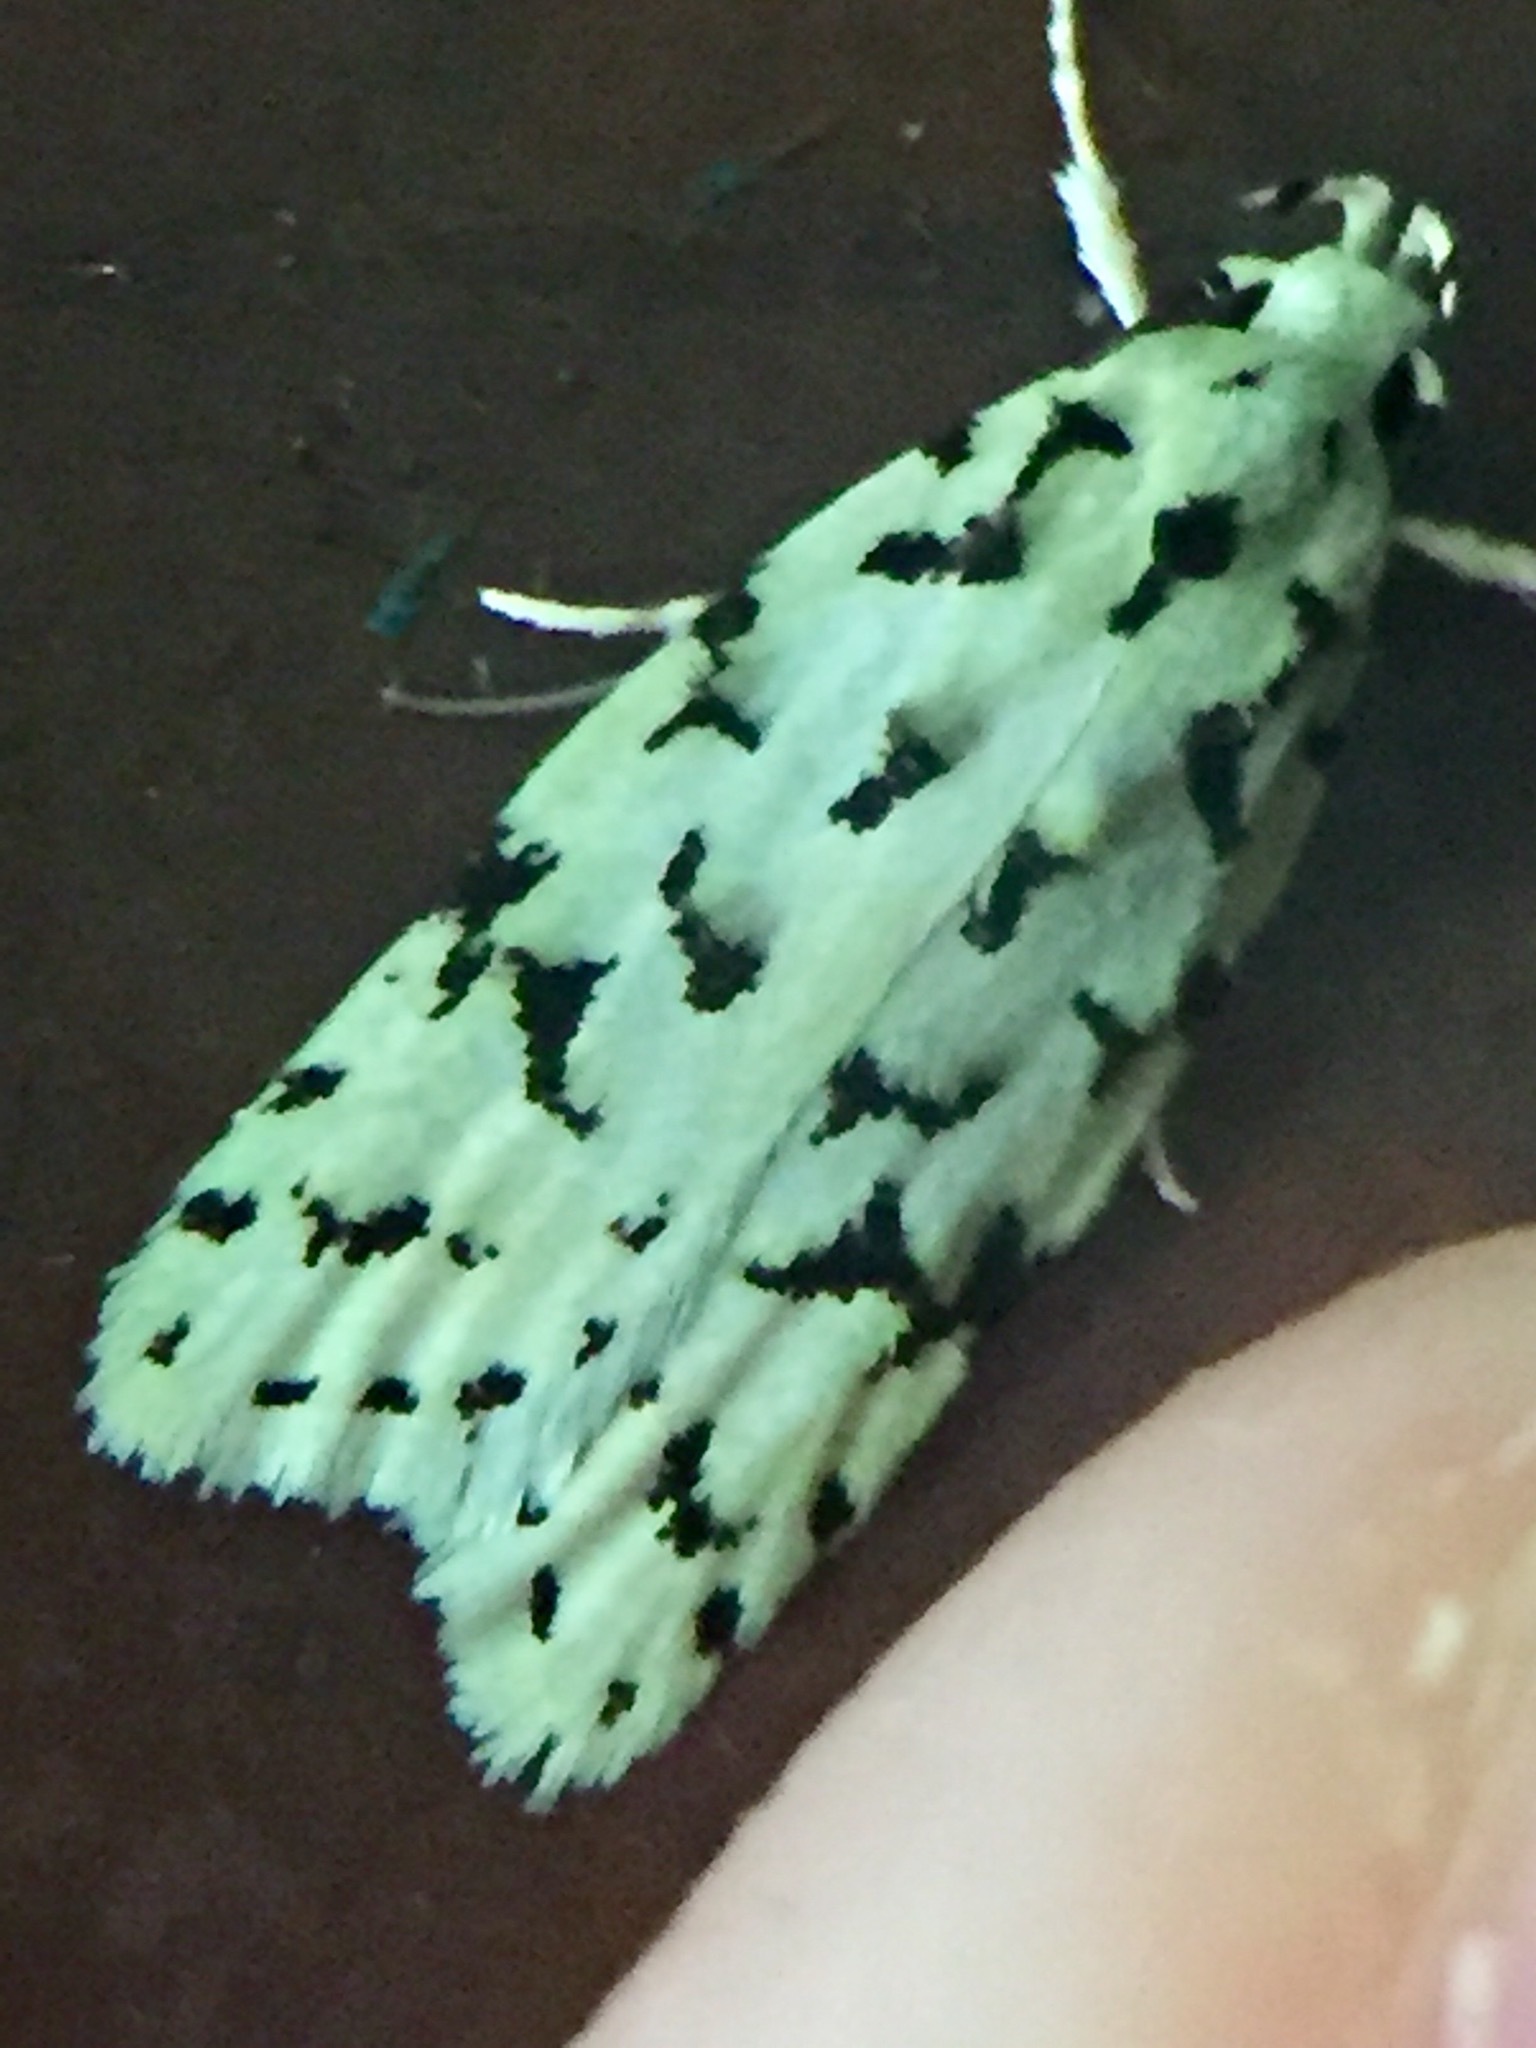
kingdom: Animalia
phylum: Arthropoda
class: Insecta
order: Lepidoptera
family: Oecophoridae
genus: Izatha
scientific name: Izatha peroneanella
